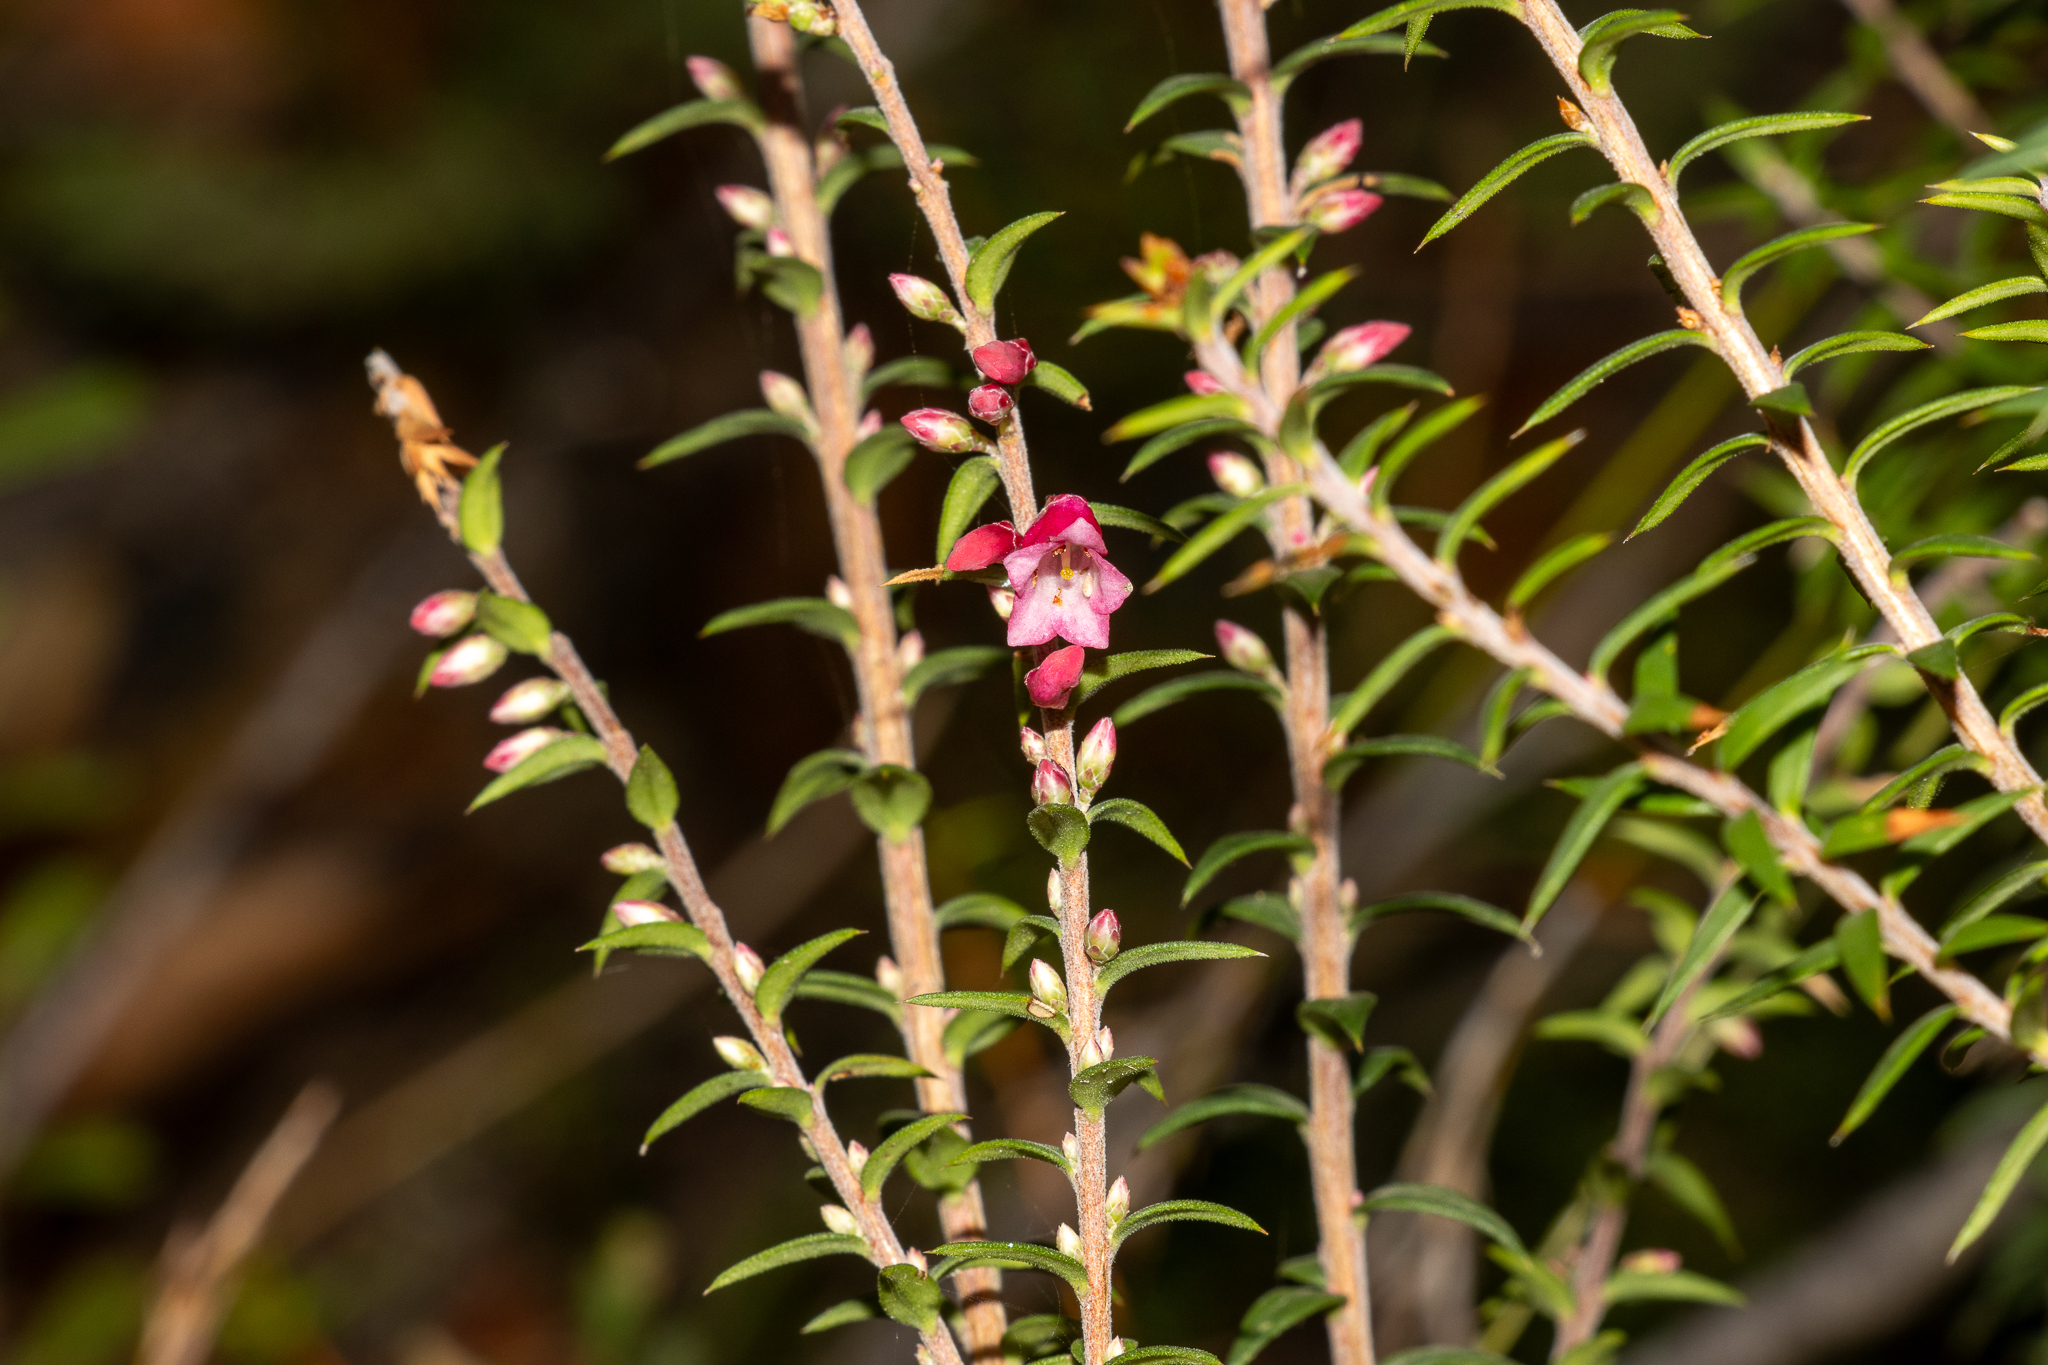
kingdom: Plantae
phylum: Tracheophyta
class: Magnoliopsida
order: Ericales
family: Ericaceae
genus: Epacris
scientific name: Epacris impressa
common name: Common-heath
